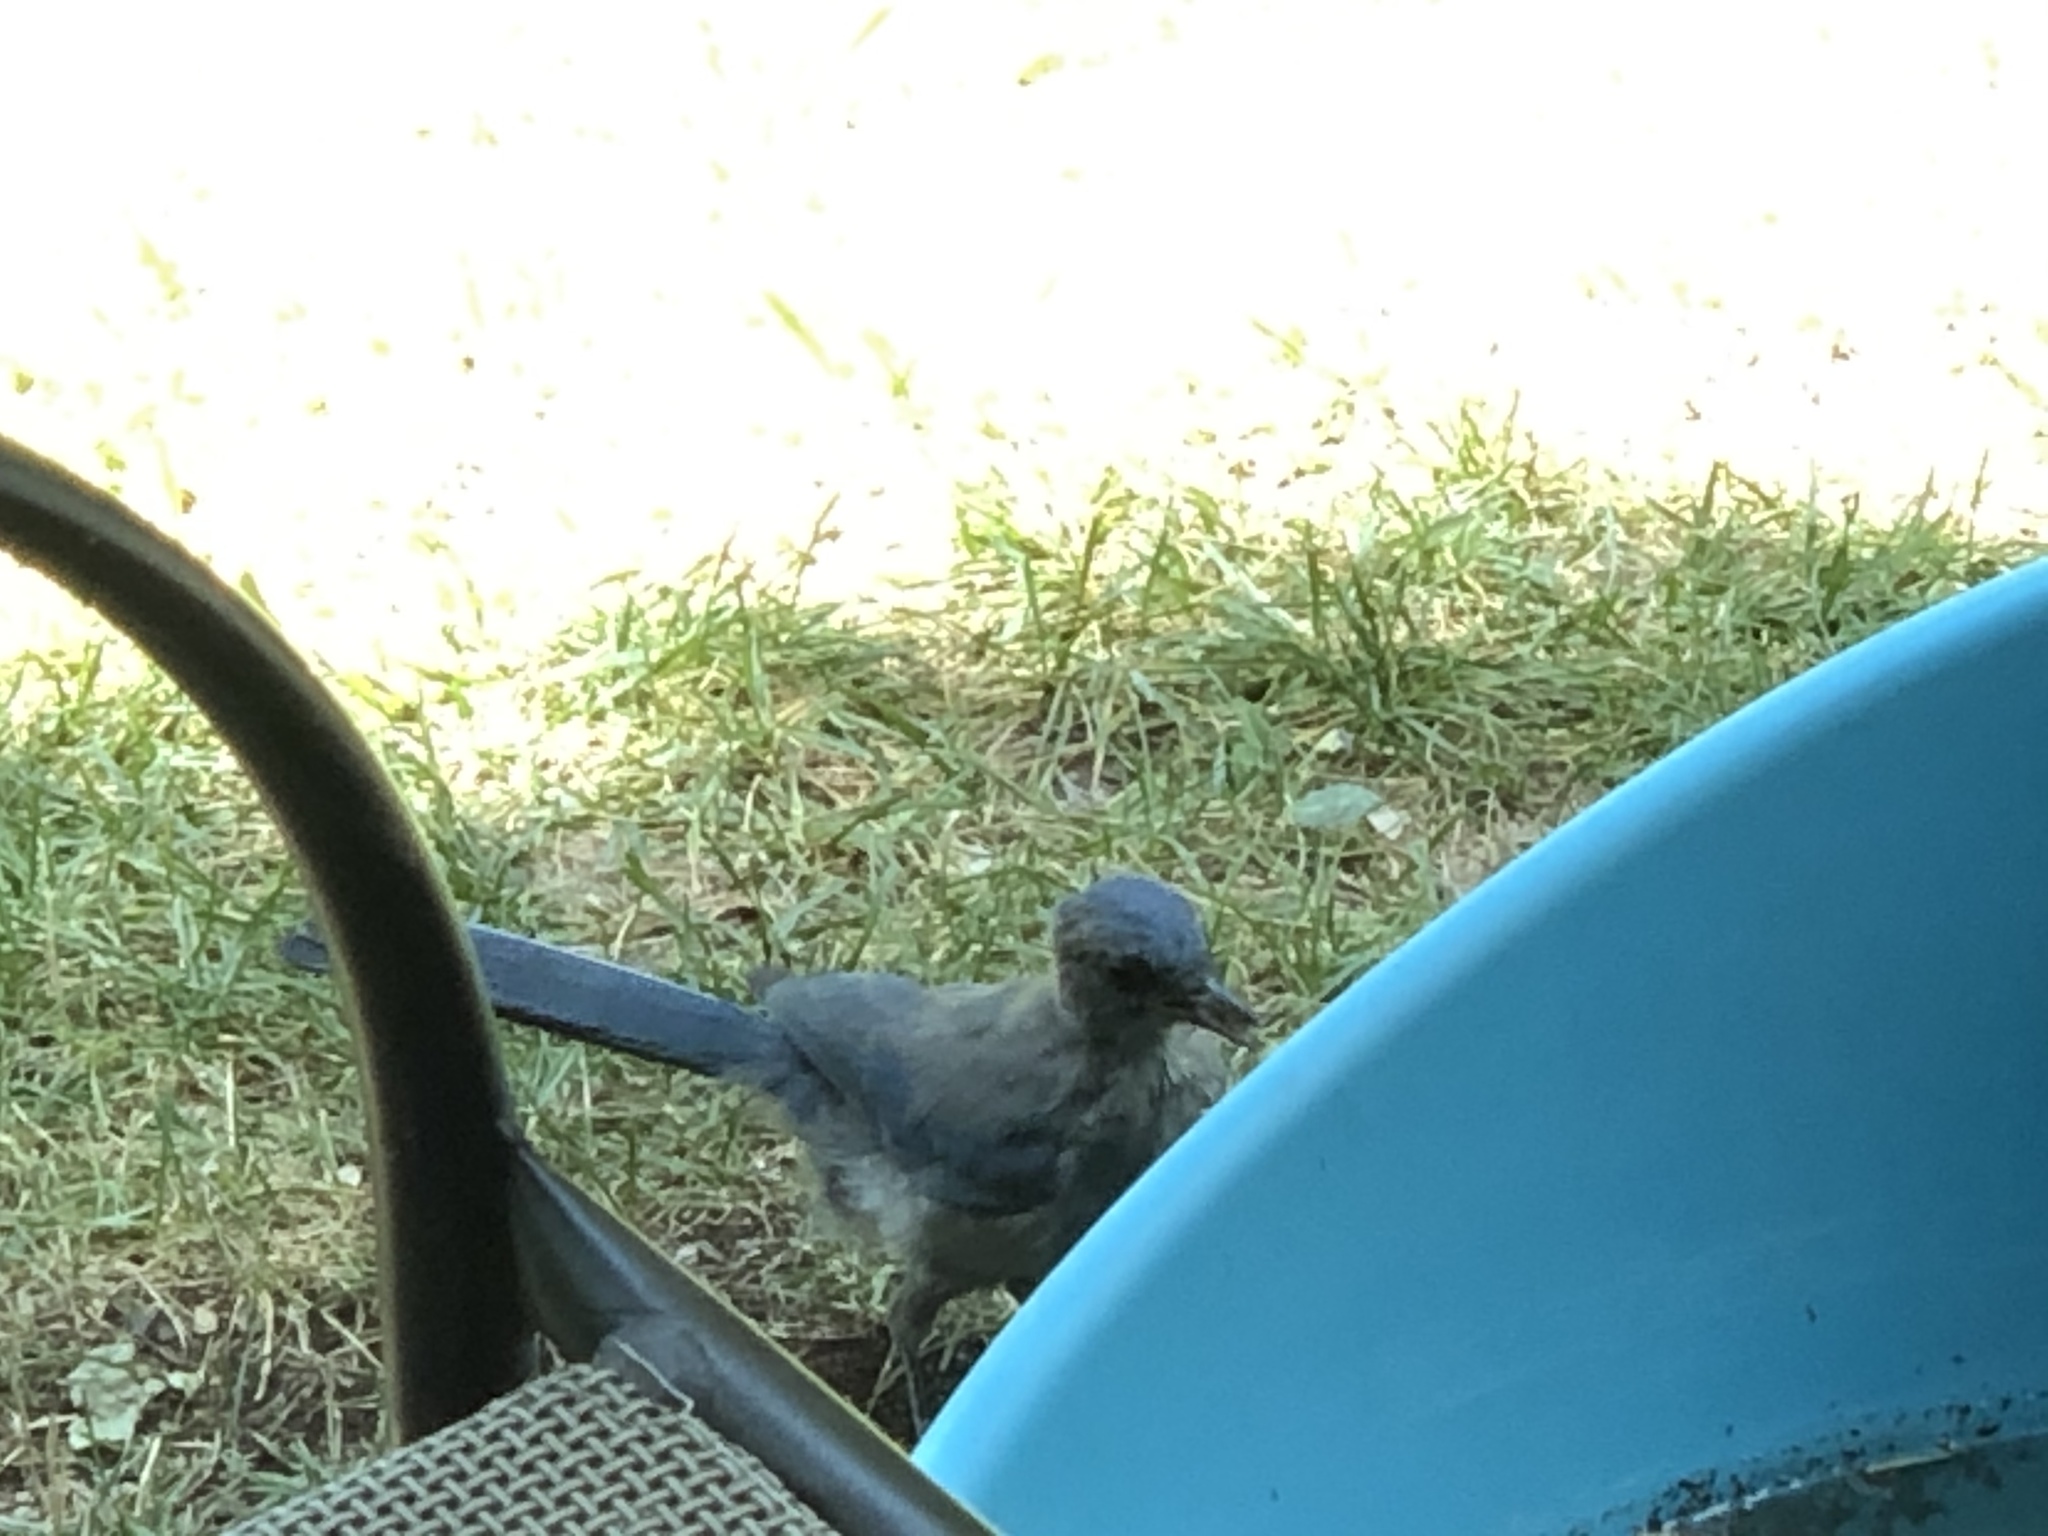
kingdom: Animalia
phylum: Chordata
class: Aves
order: Passeriformes
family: Corvidae
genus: Aphelocoma
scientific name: Aphelocoma woodhouseii
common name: Woodhouse's scrub-jay
